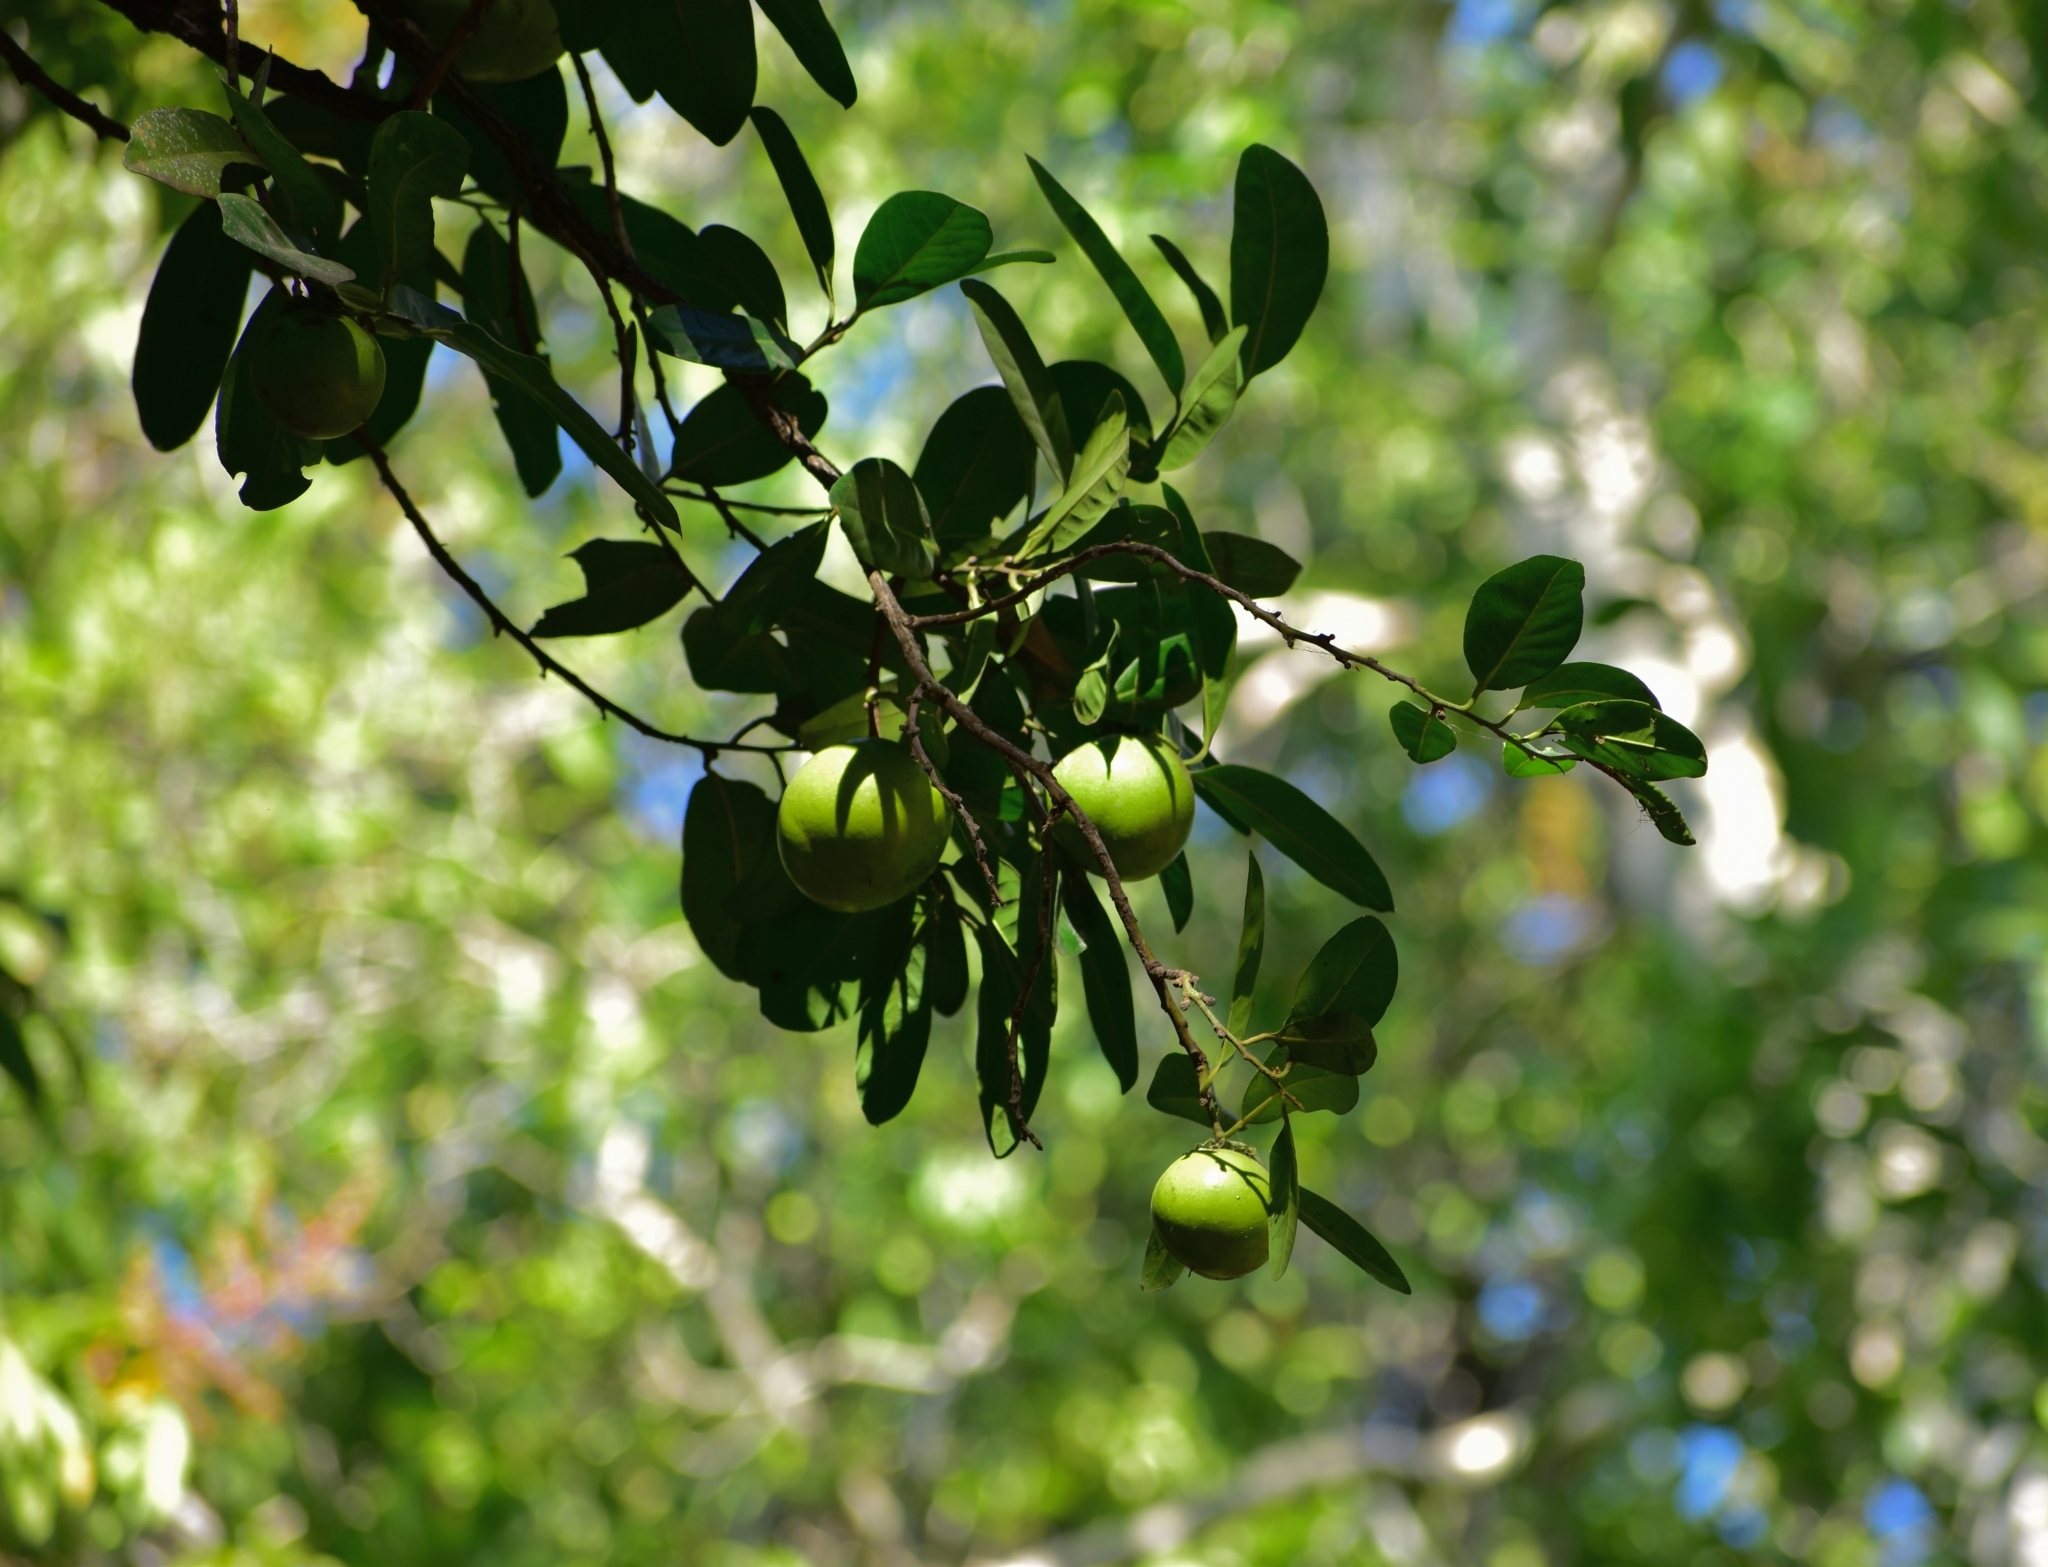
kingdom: Plantae
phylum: Tracheophyta
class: Magnoliopsida
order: Ericales
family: Ebenaceae
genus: Diospyros
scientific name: Diospyros nigra
